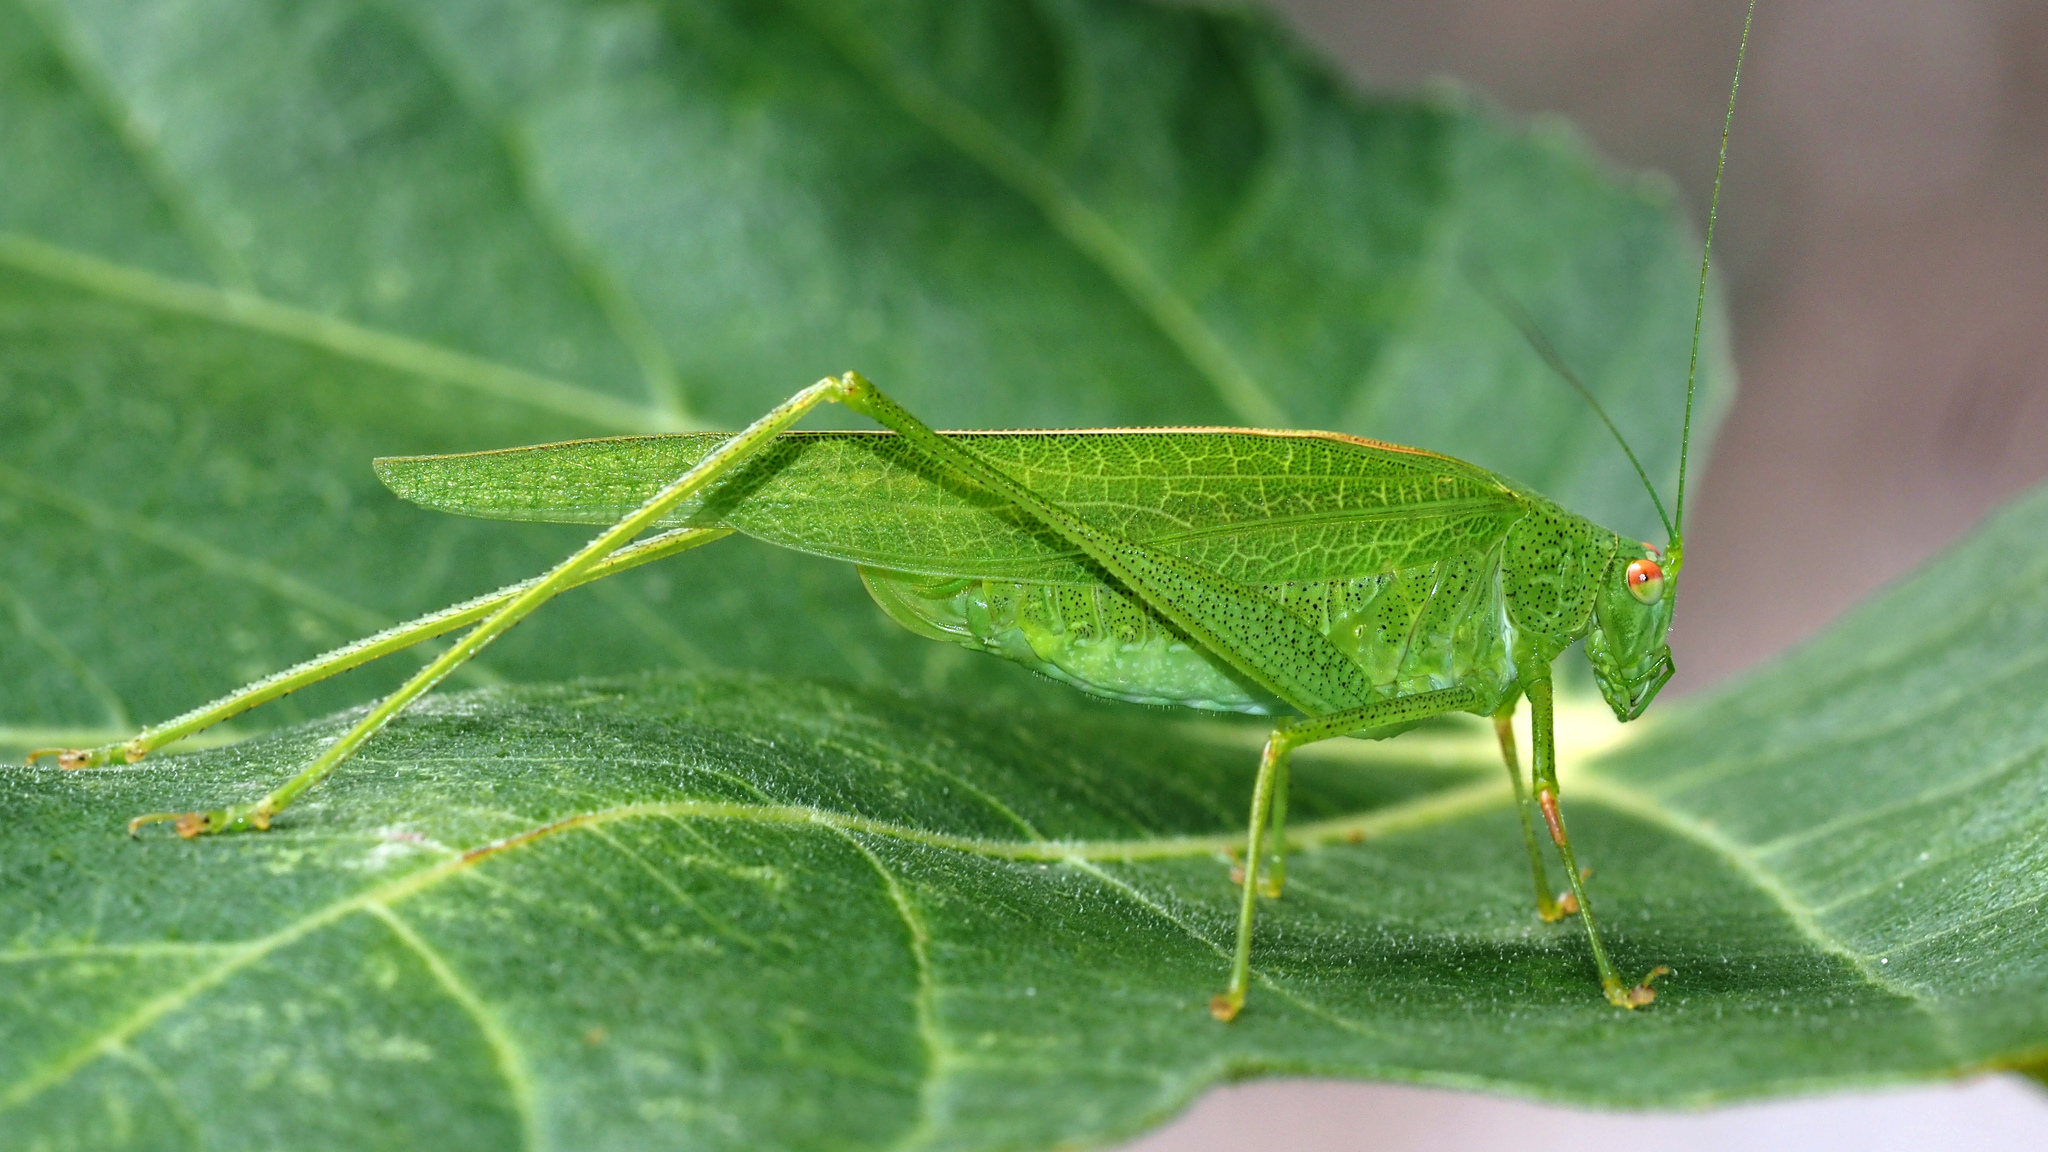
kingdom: Animalia
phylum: Arthropoda
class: Insecta
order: Orthoptera
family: Tettigoniidae
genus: Phaneroptera
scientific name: Phaneroptera nana
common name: Southern sickle bush-cricket
